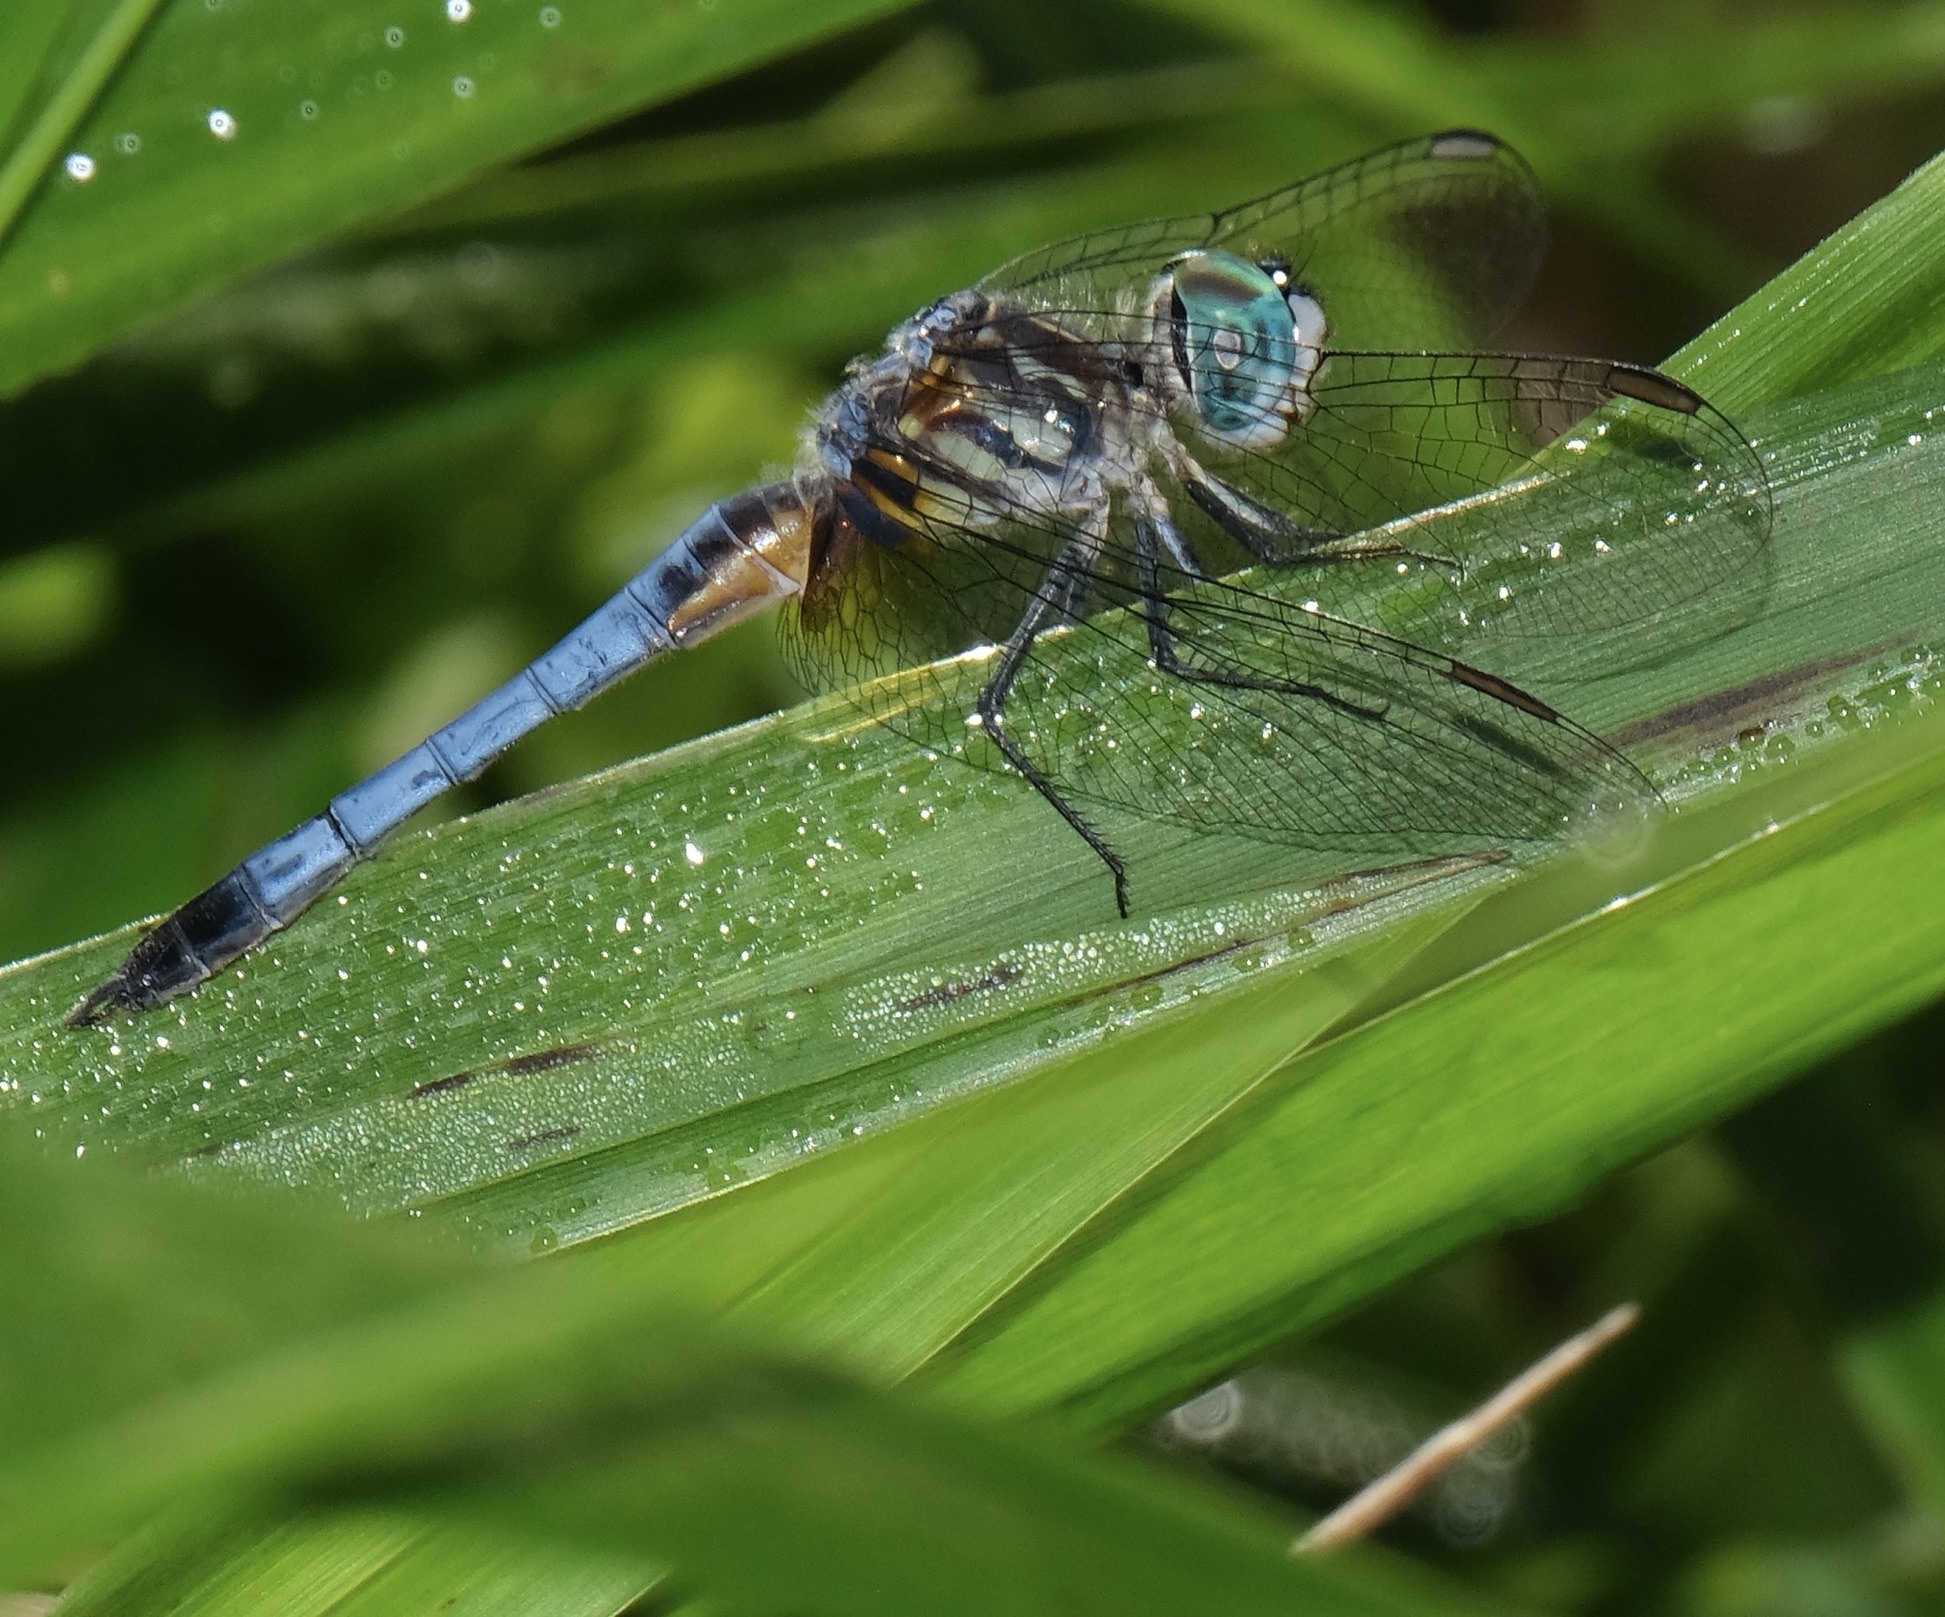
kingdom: Animalia
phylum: Arthropoda
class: Insecta
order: Odonata
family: Libellulidae
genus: Pachydiplax
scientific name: Pachydiplax longipennis
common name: Blue dasher
